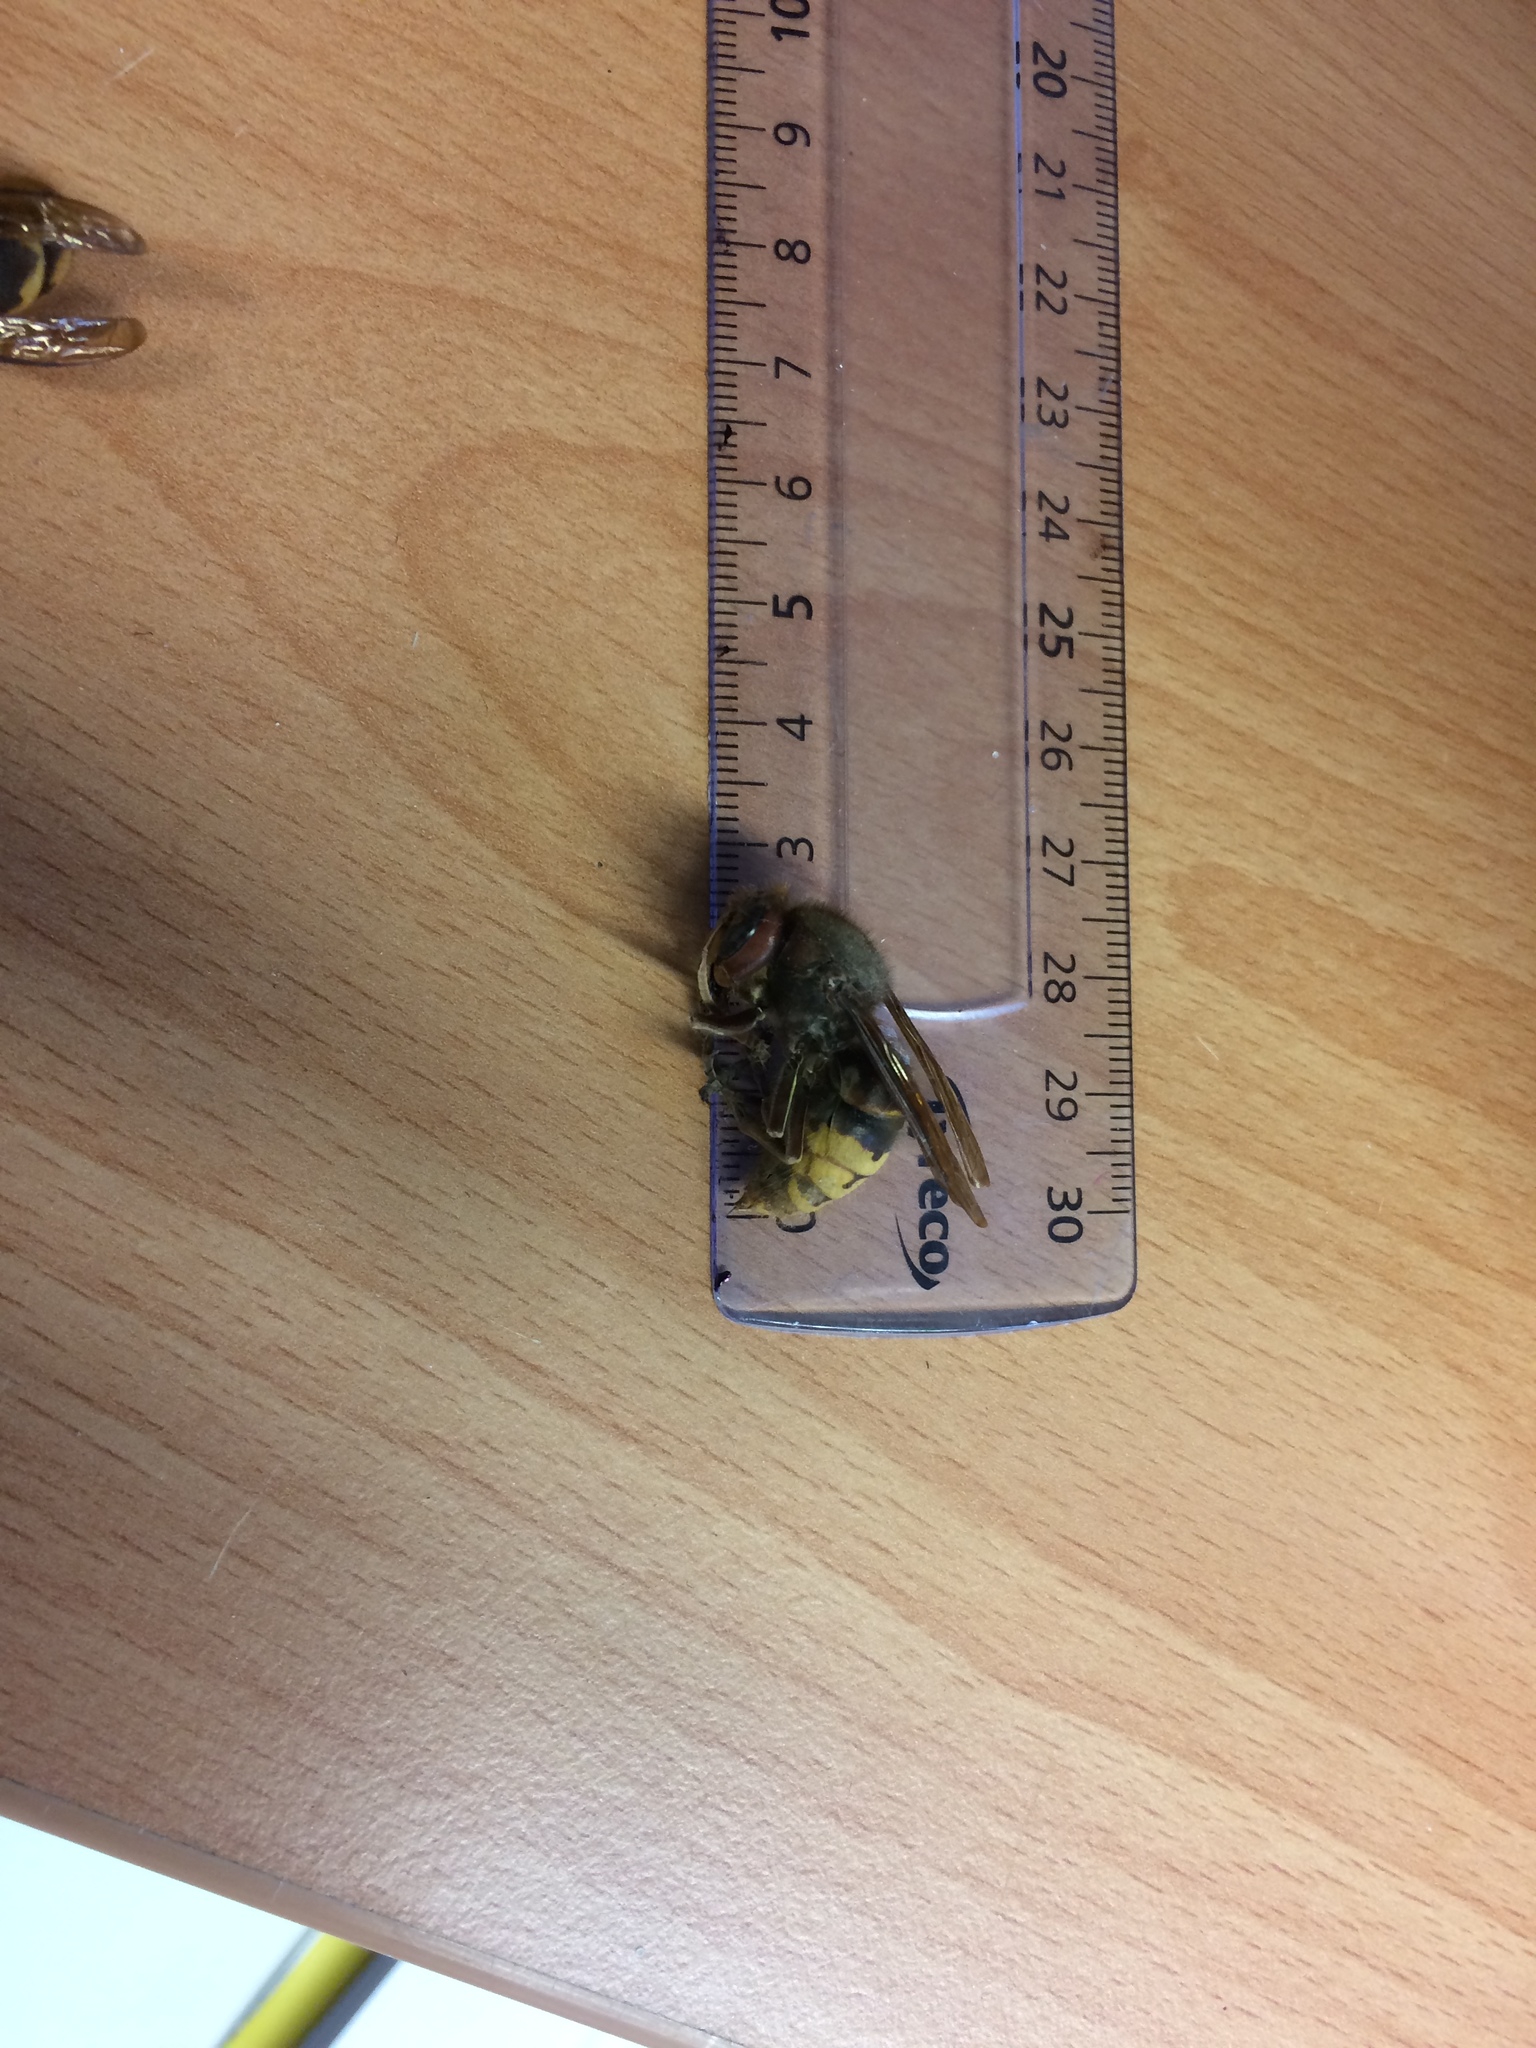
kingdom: Animalia
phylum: Arthropoda
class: Insecta
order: Hymenoptera
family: Vespidae
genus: Vespa
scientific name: Vespa crabro
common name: Hornet
